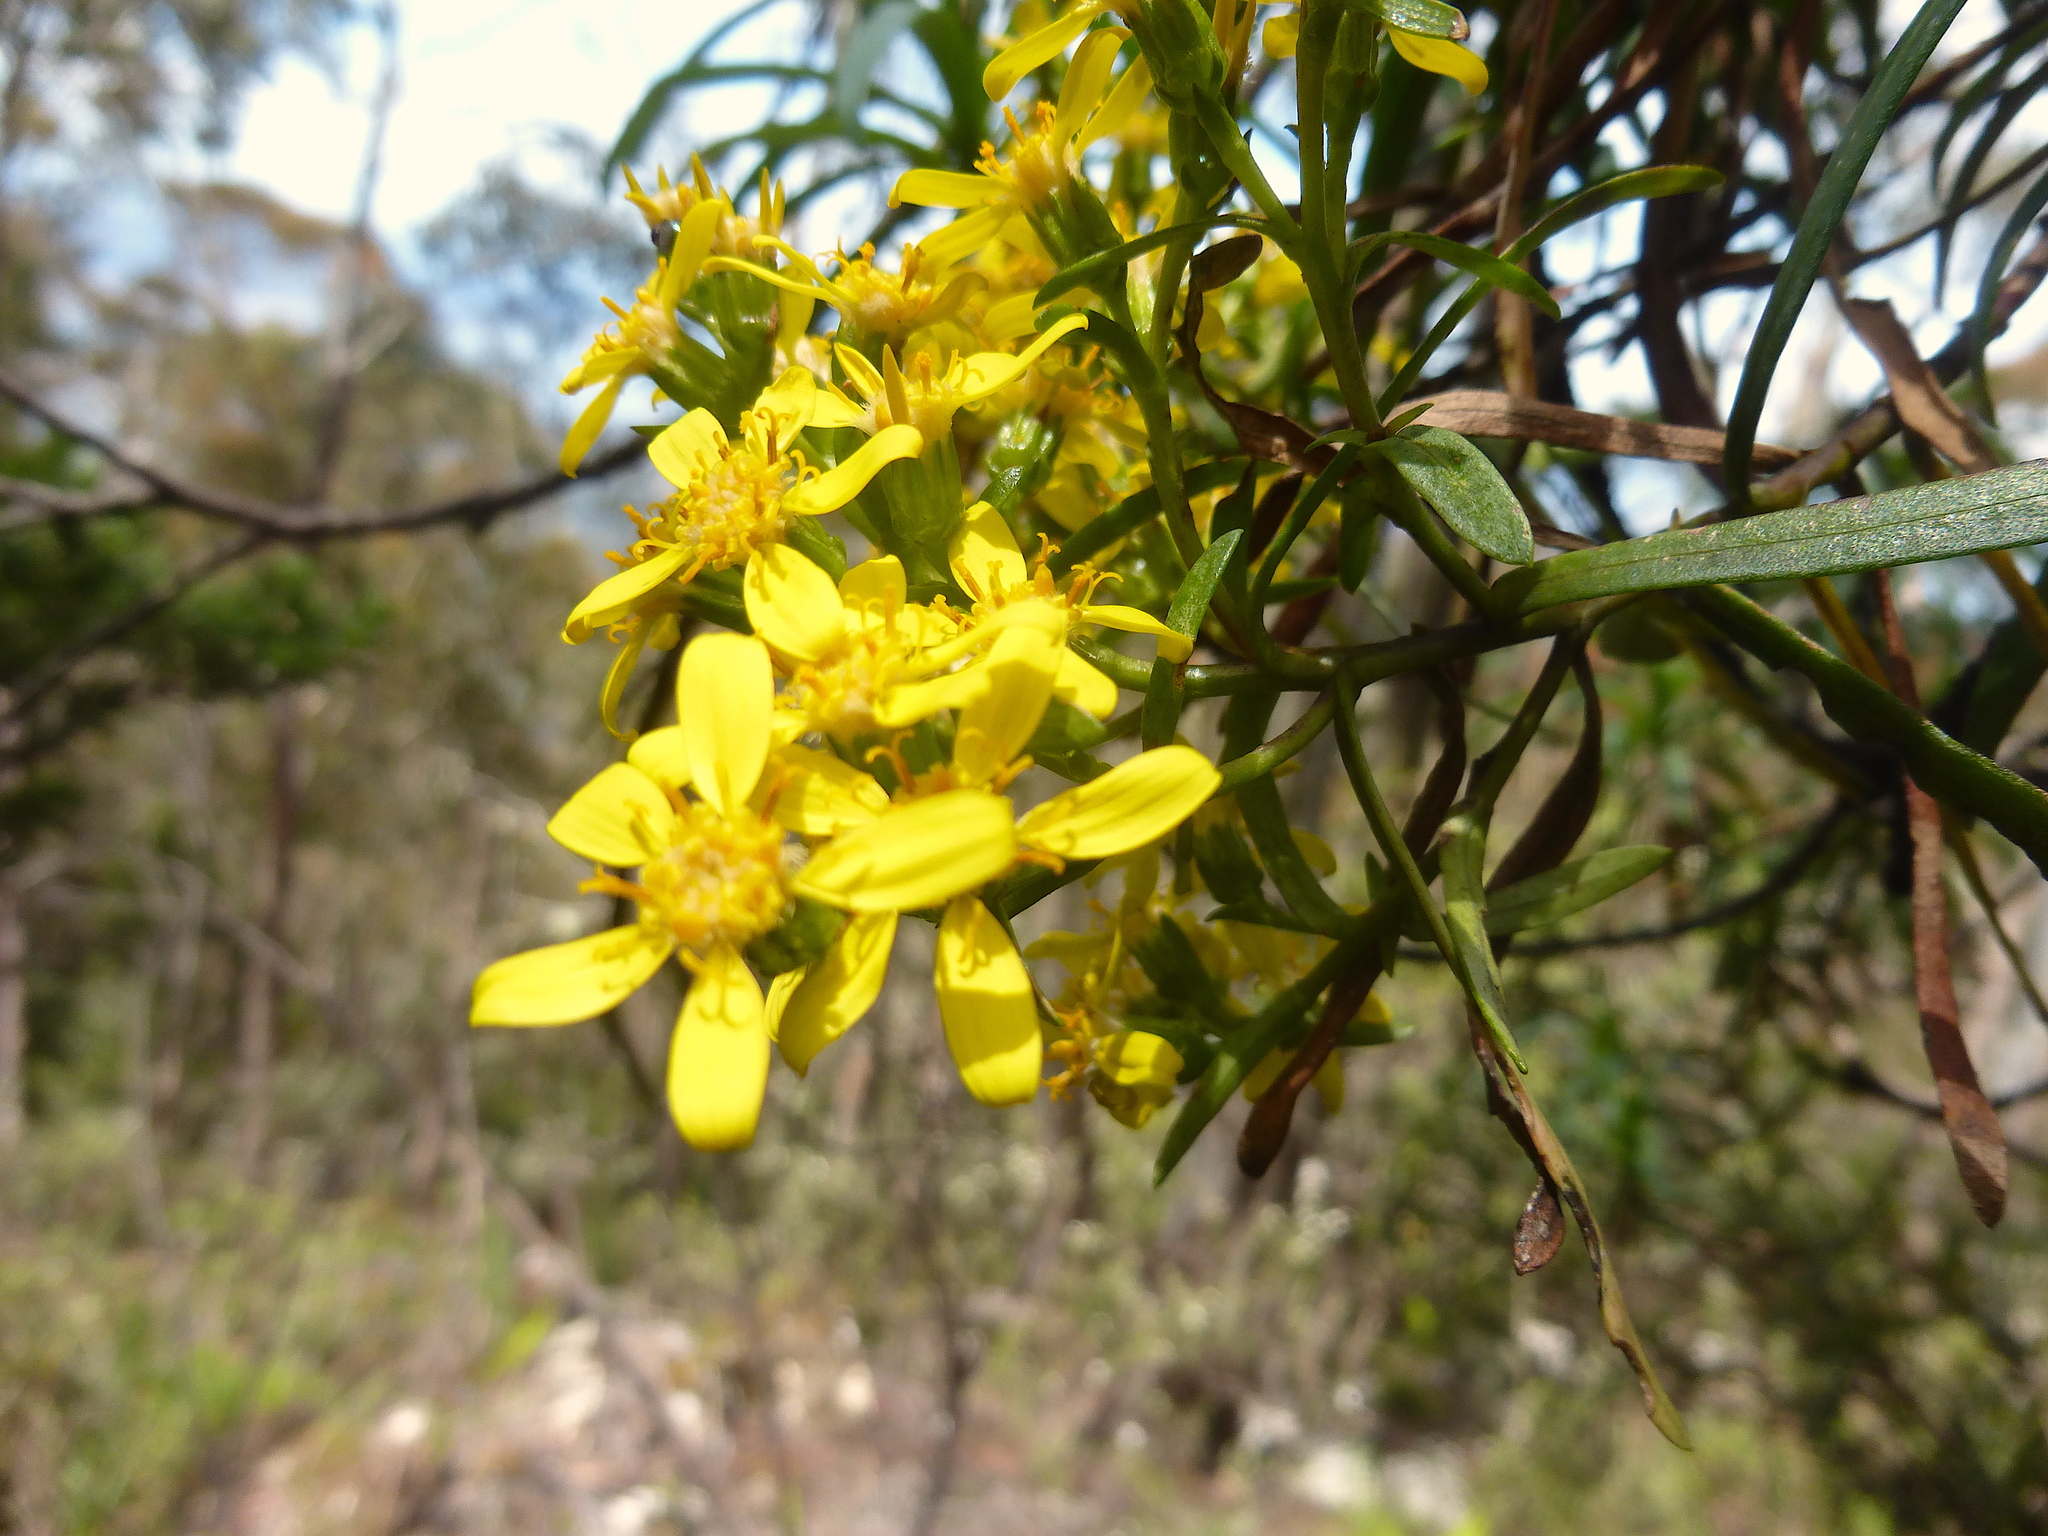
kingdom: Plantae
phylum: Tracheophyta
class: Magnoliopsida
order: Asterales
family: Asteraceae
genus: Centropappus
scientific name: Centropappus brunonis
